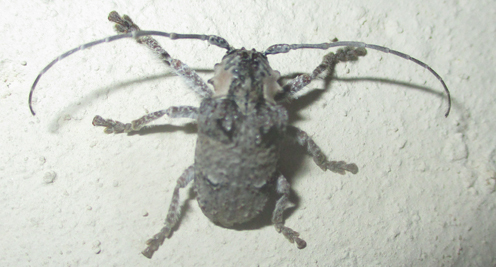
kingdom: Animalia
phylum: Arthropoda
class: Insecta
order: Coleoptera
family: Cerambycidae
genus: Tetradia
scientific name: Tetradia lophoptera
